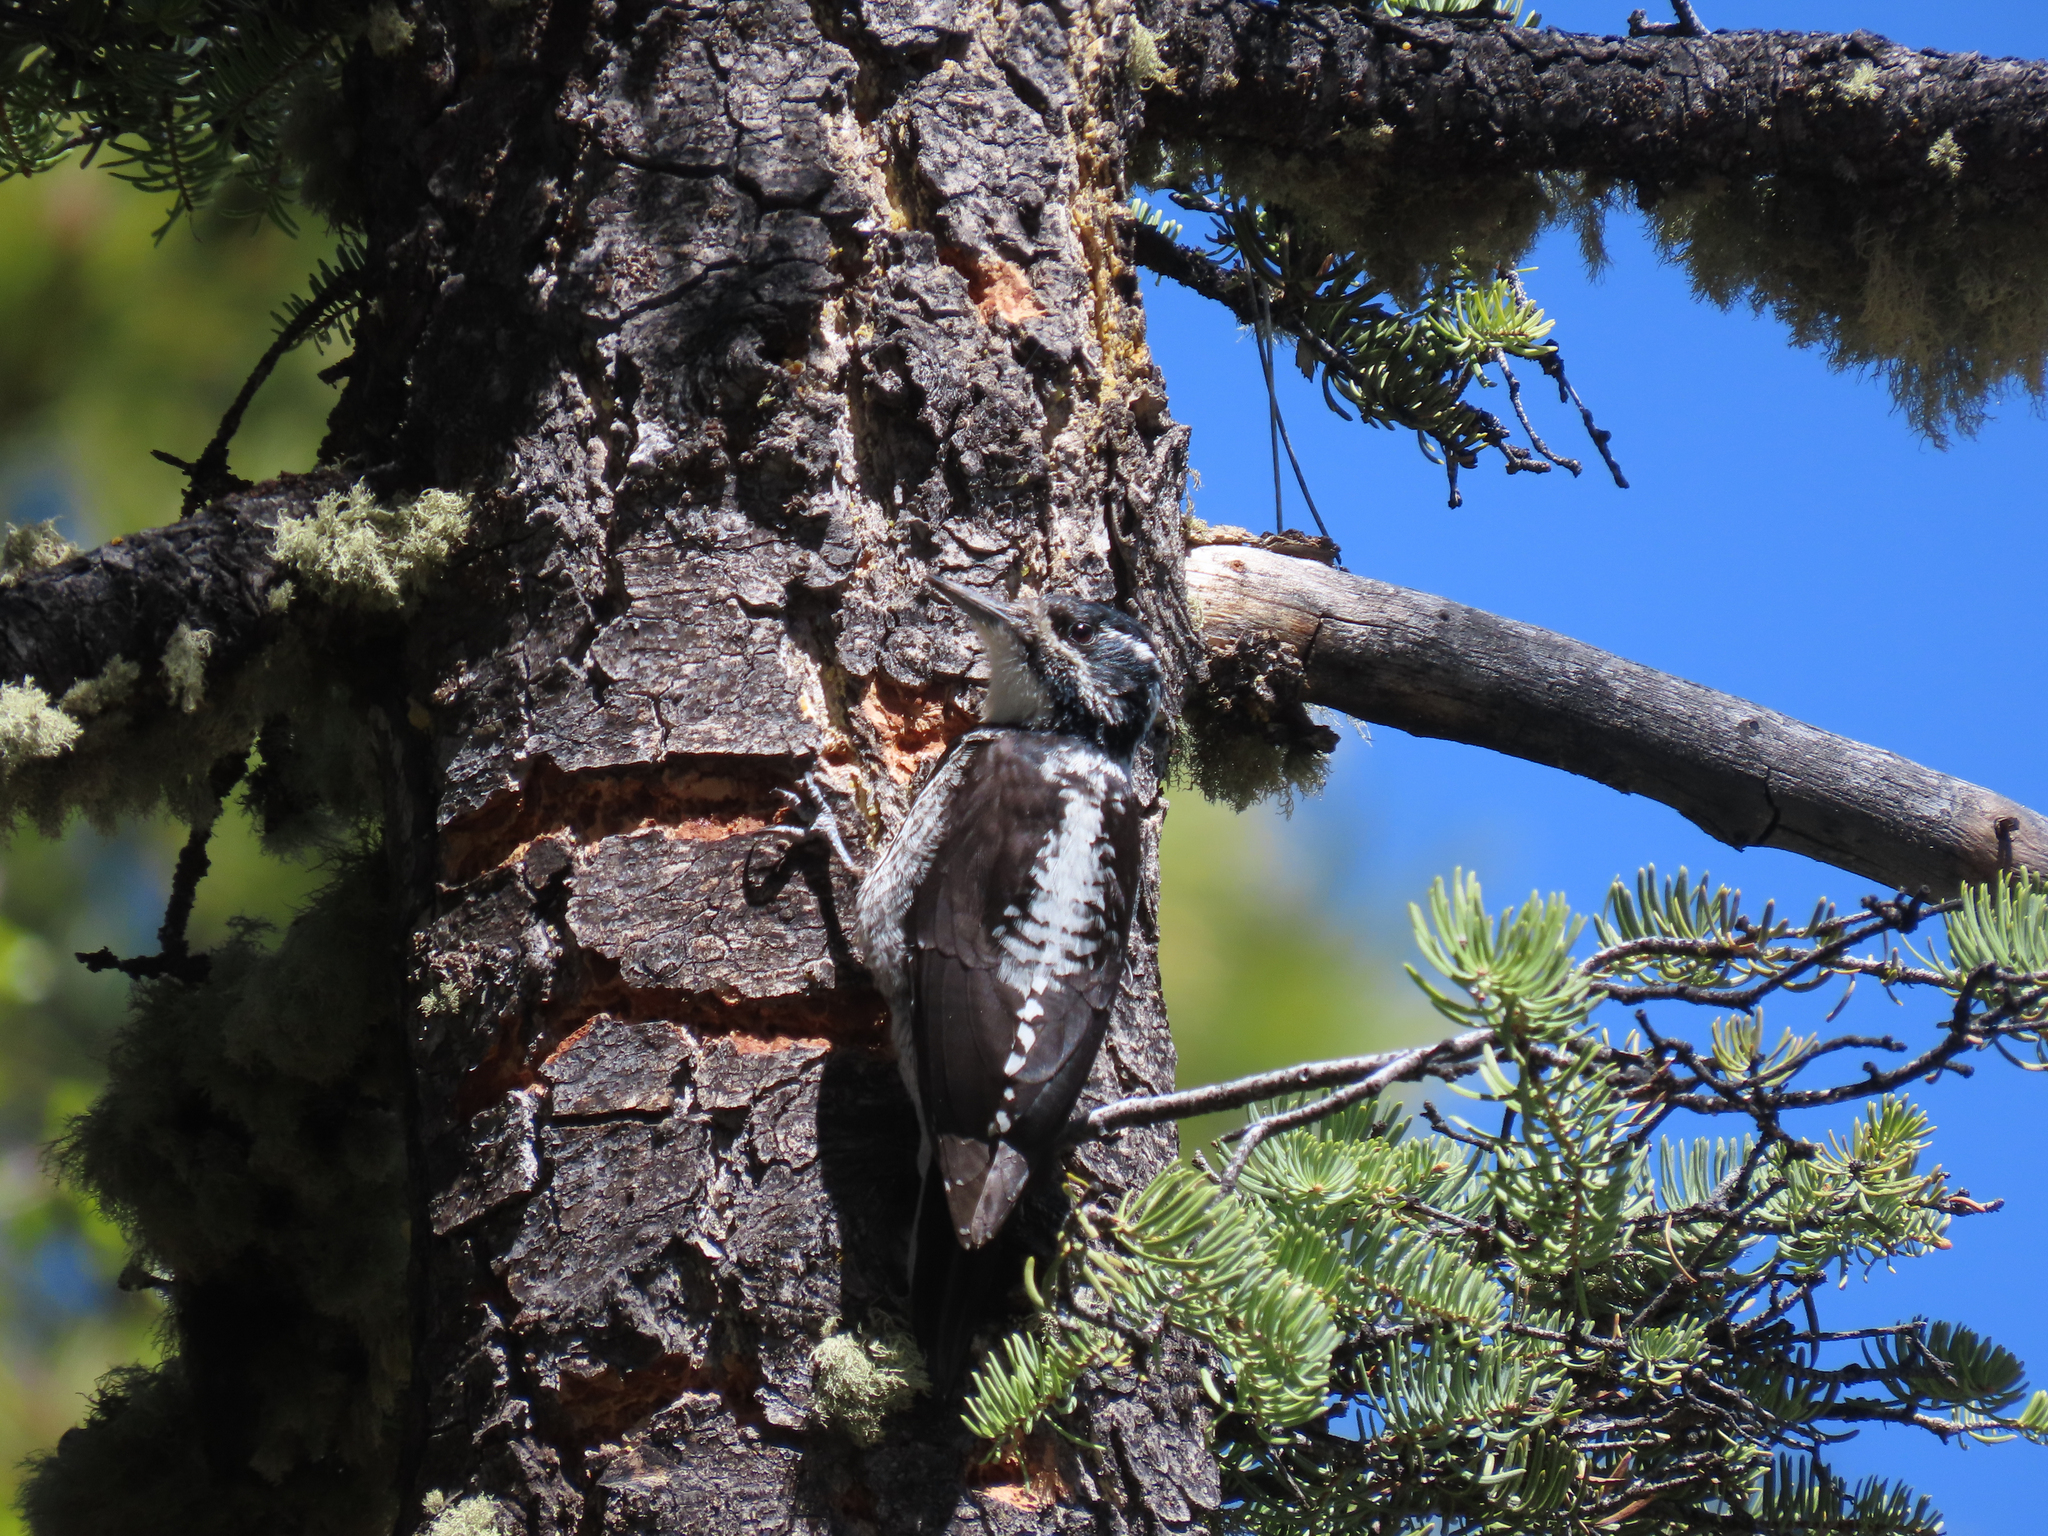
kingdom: Animalia
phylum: Chordata
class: Aves
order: Piciformes
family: Picidae
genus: Picoides
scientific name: Picoides dorsalis
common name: American three-toed woodpecker
